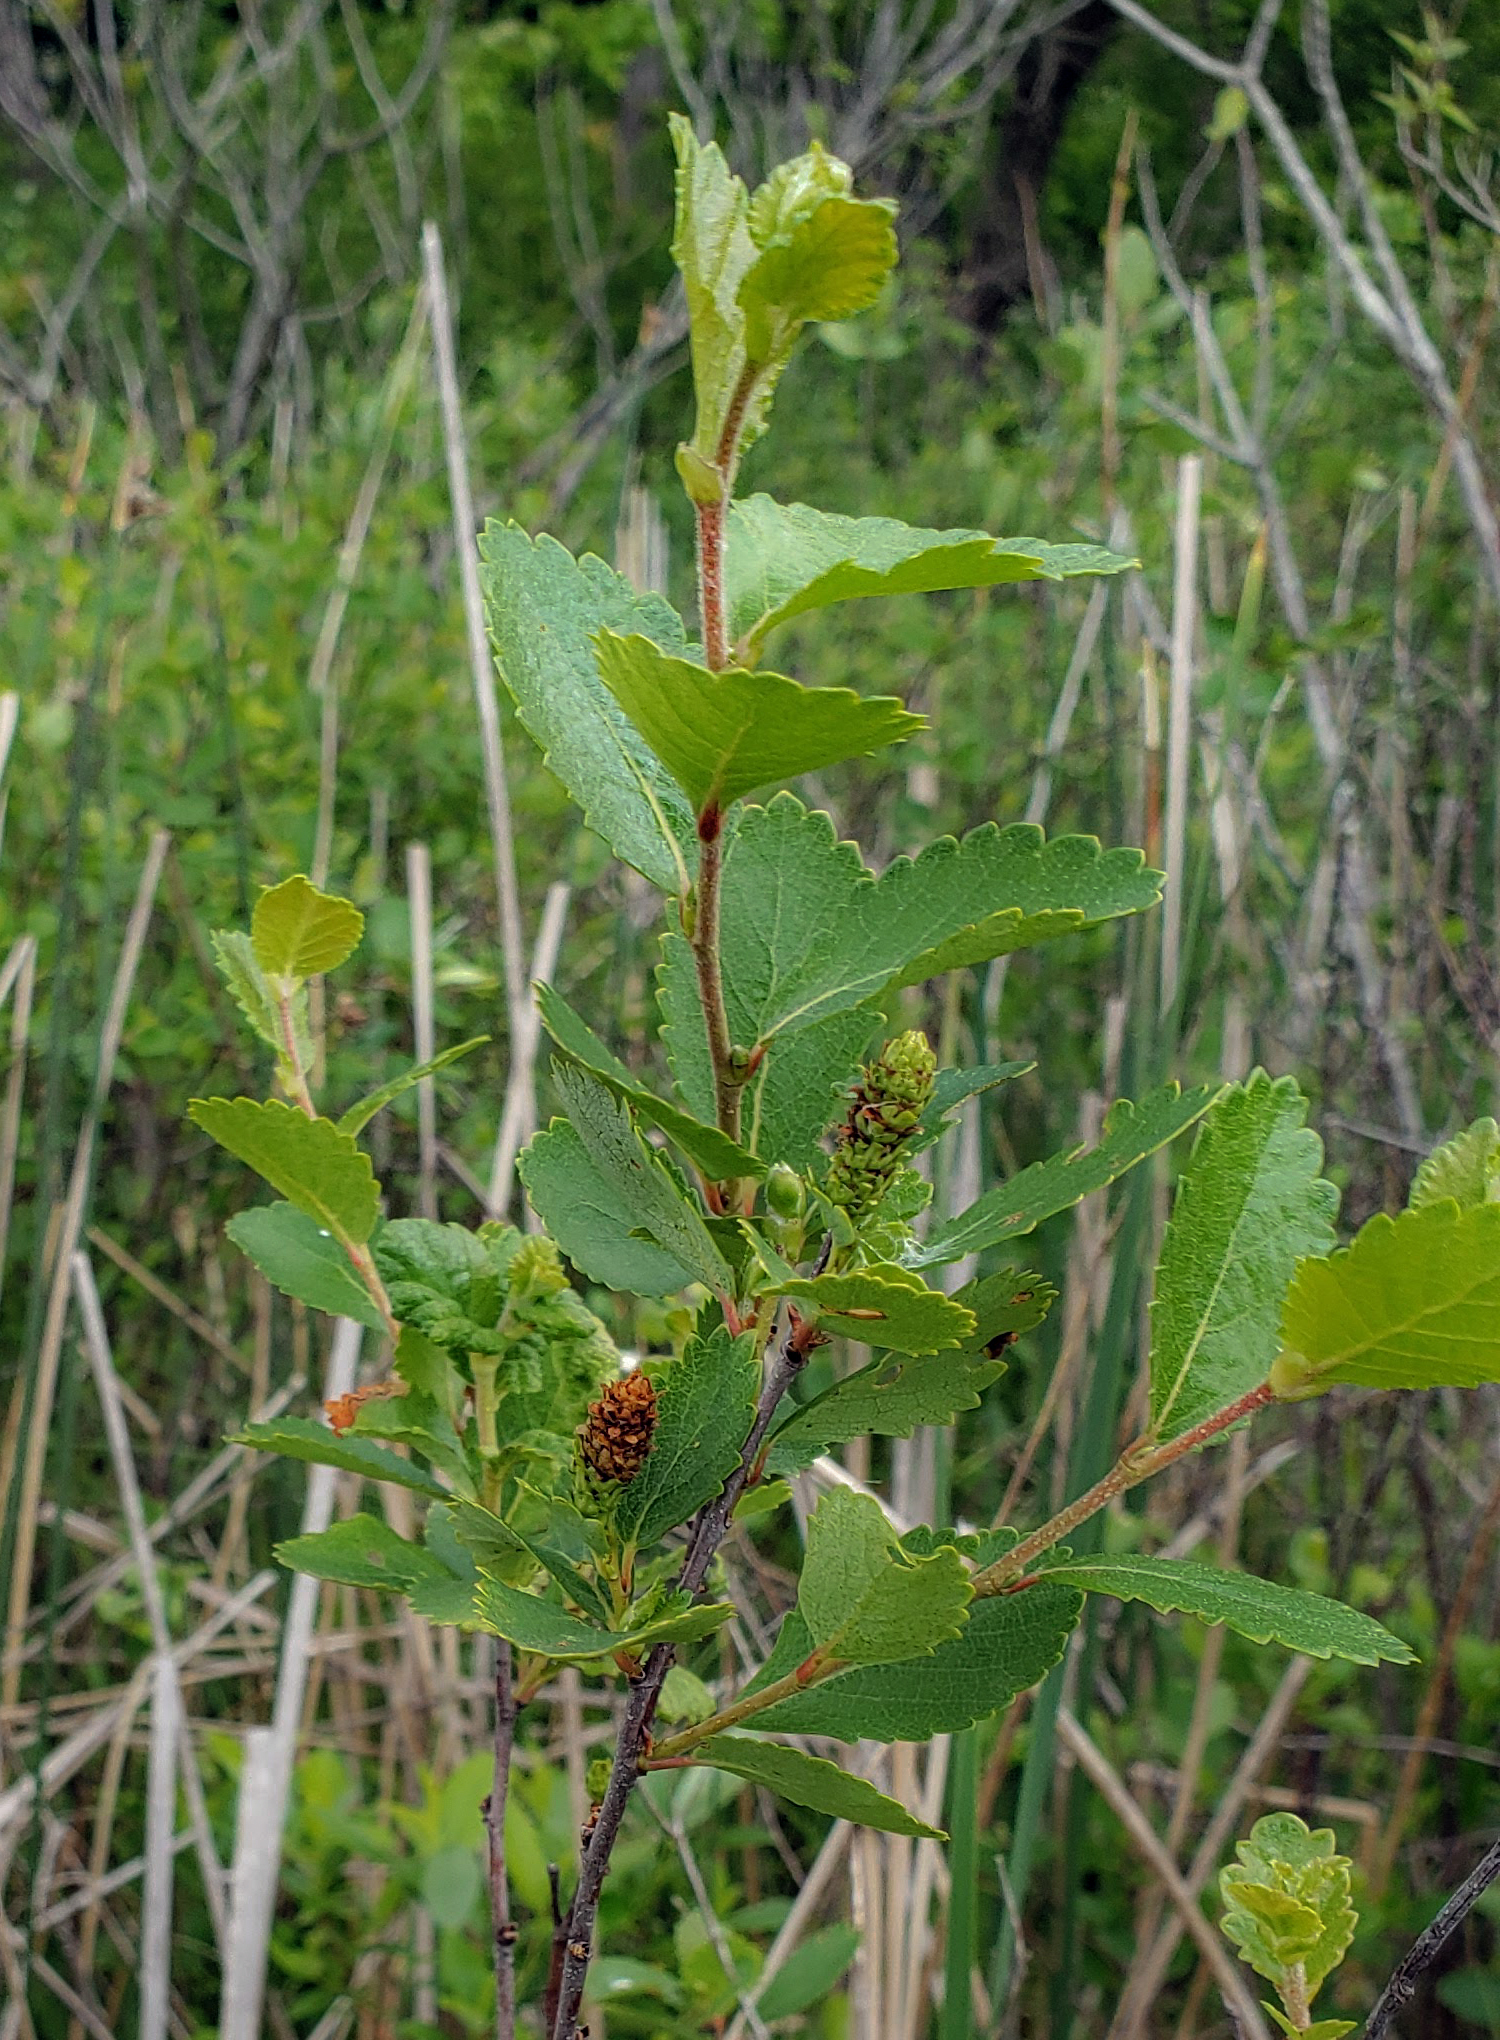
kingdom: Plantae
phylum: Tracheophyta
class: Magnoliopsida
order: Fagales
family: Betulaceae
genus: Betula
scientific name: Betula pumila
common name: Bog birch
